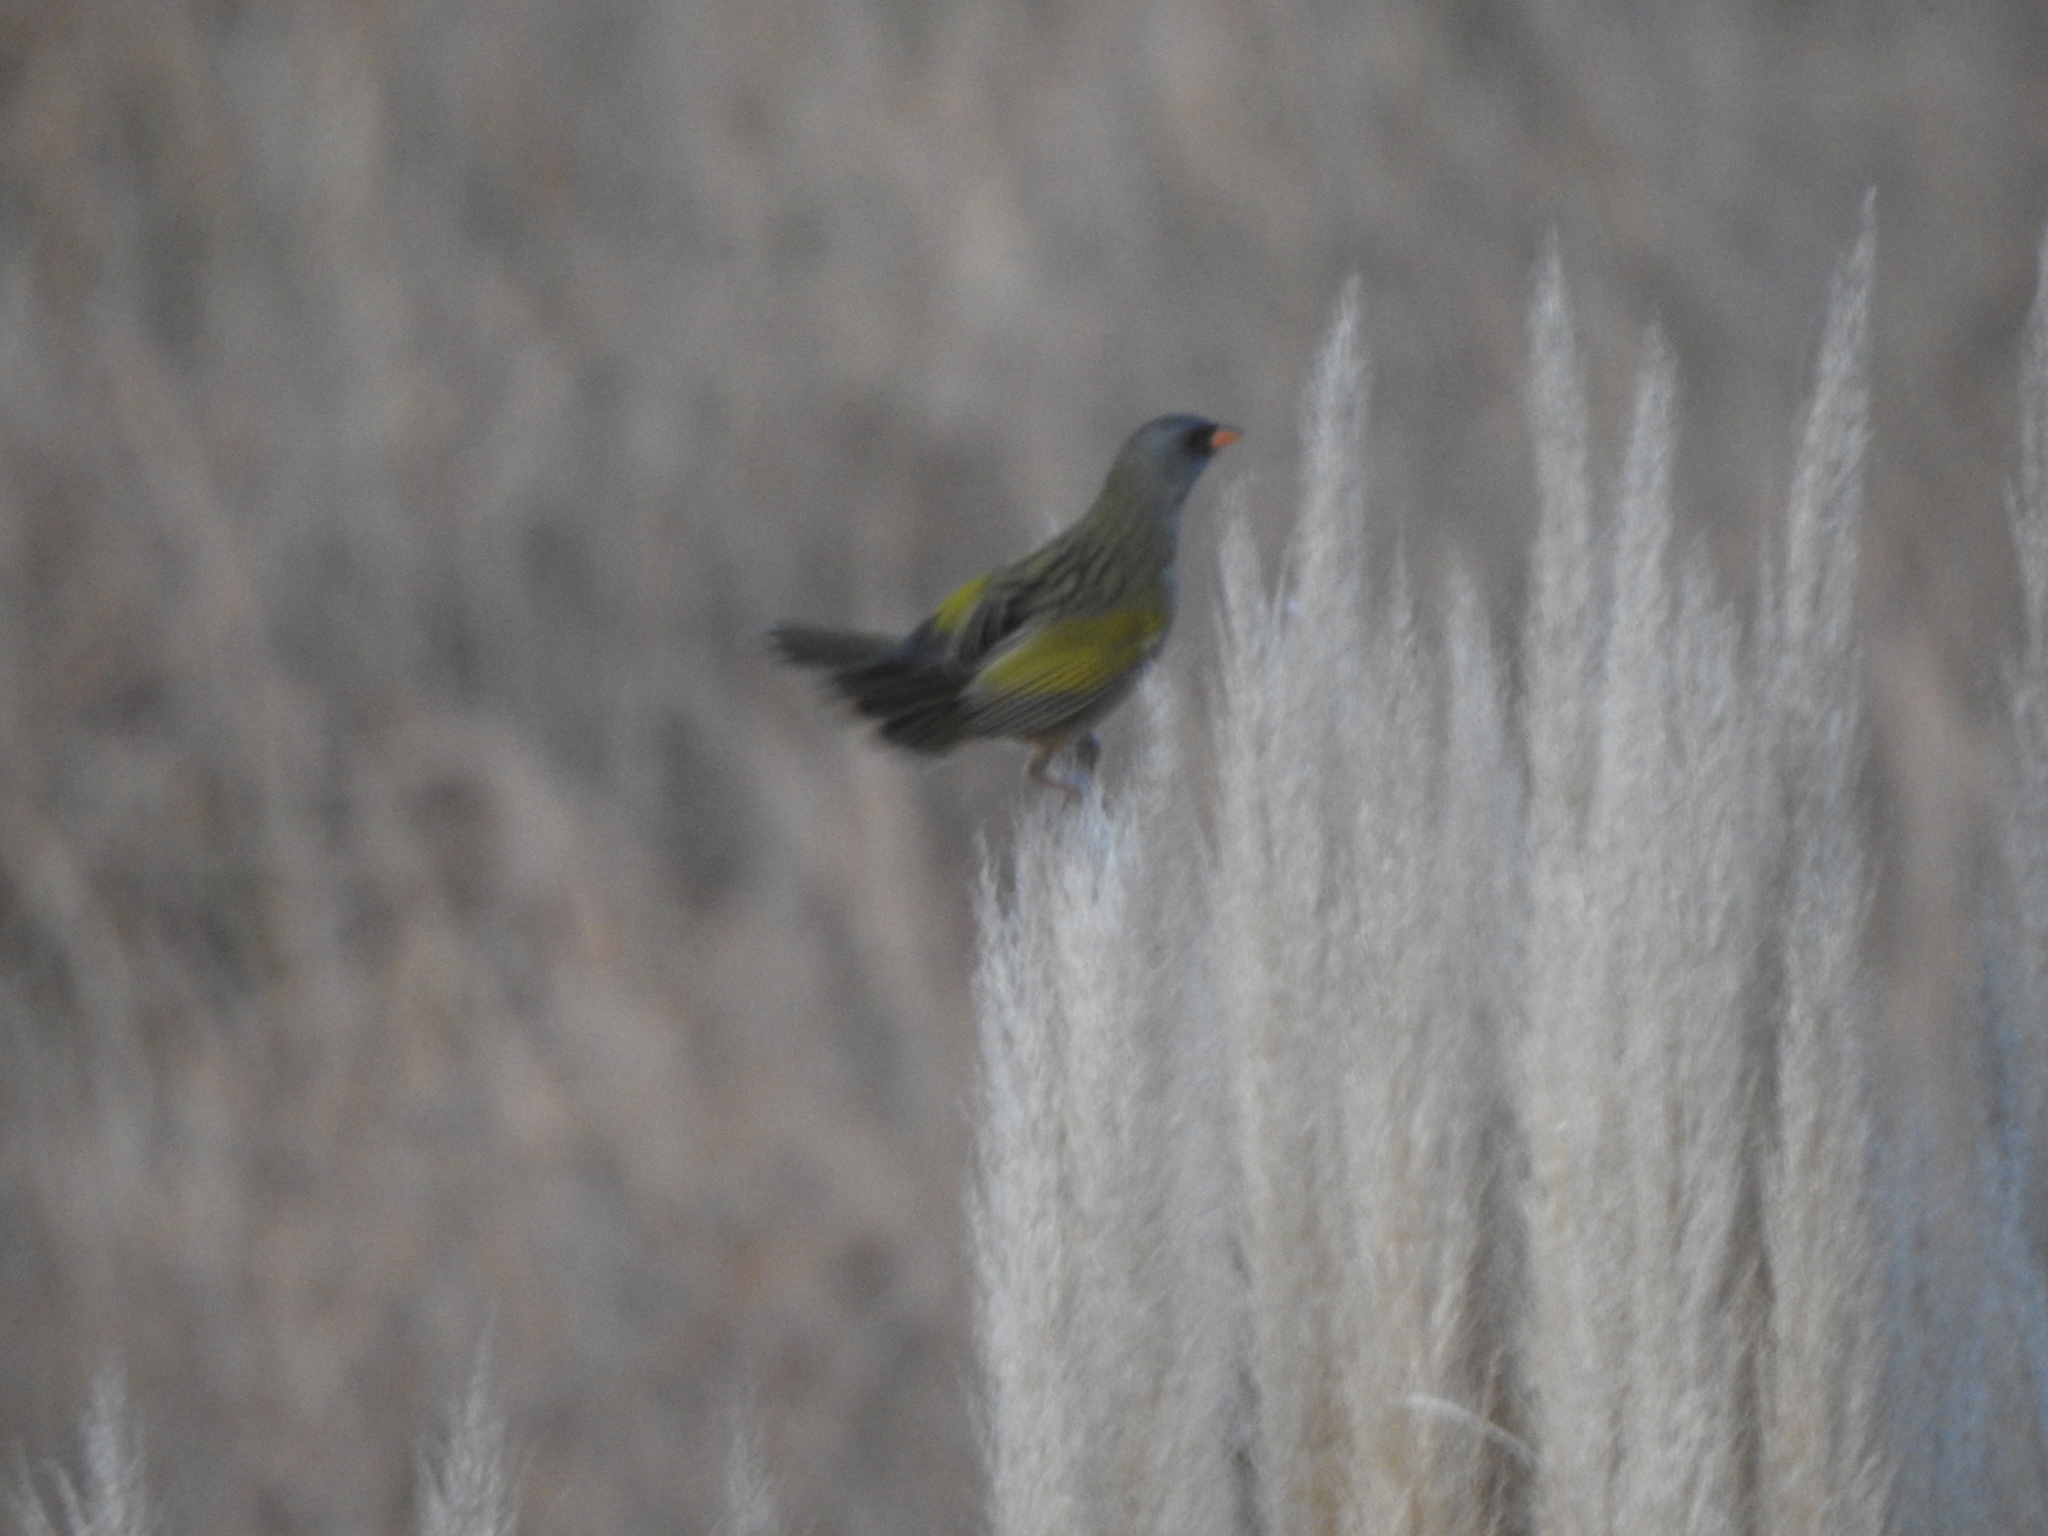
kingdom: Animalia
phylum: Chordata
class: Aves
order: Passeriformes
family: Thraupidae
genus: Embernagra
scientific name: Embernagra platensis
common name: Pampa finch
